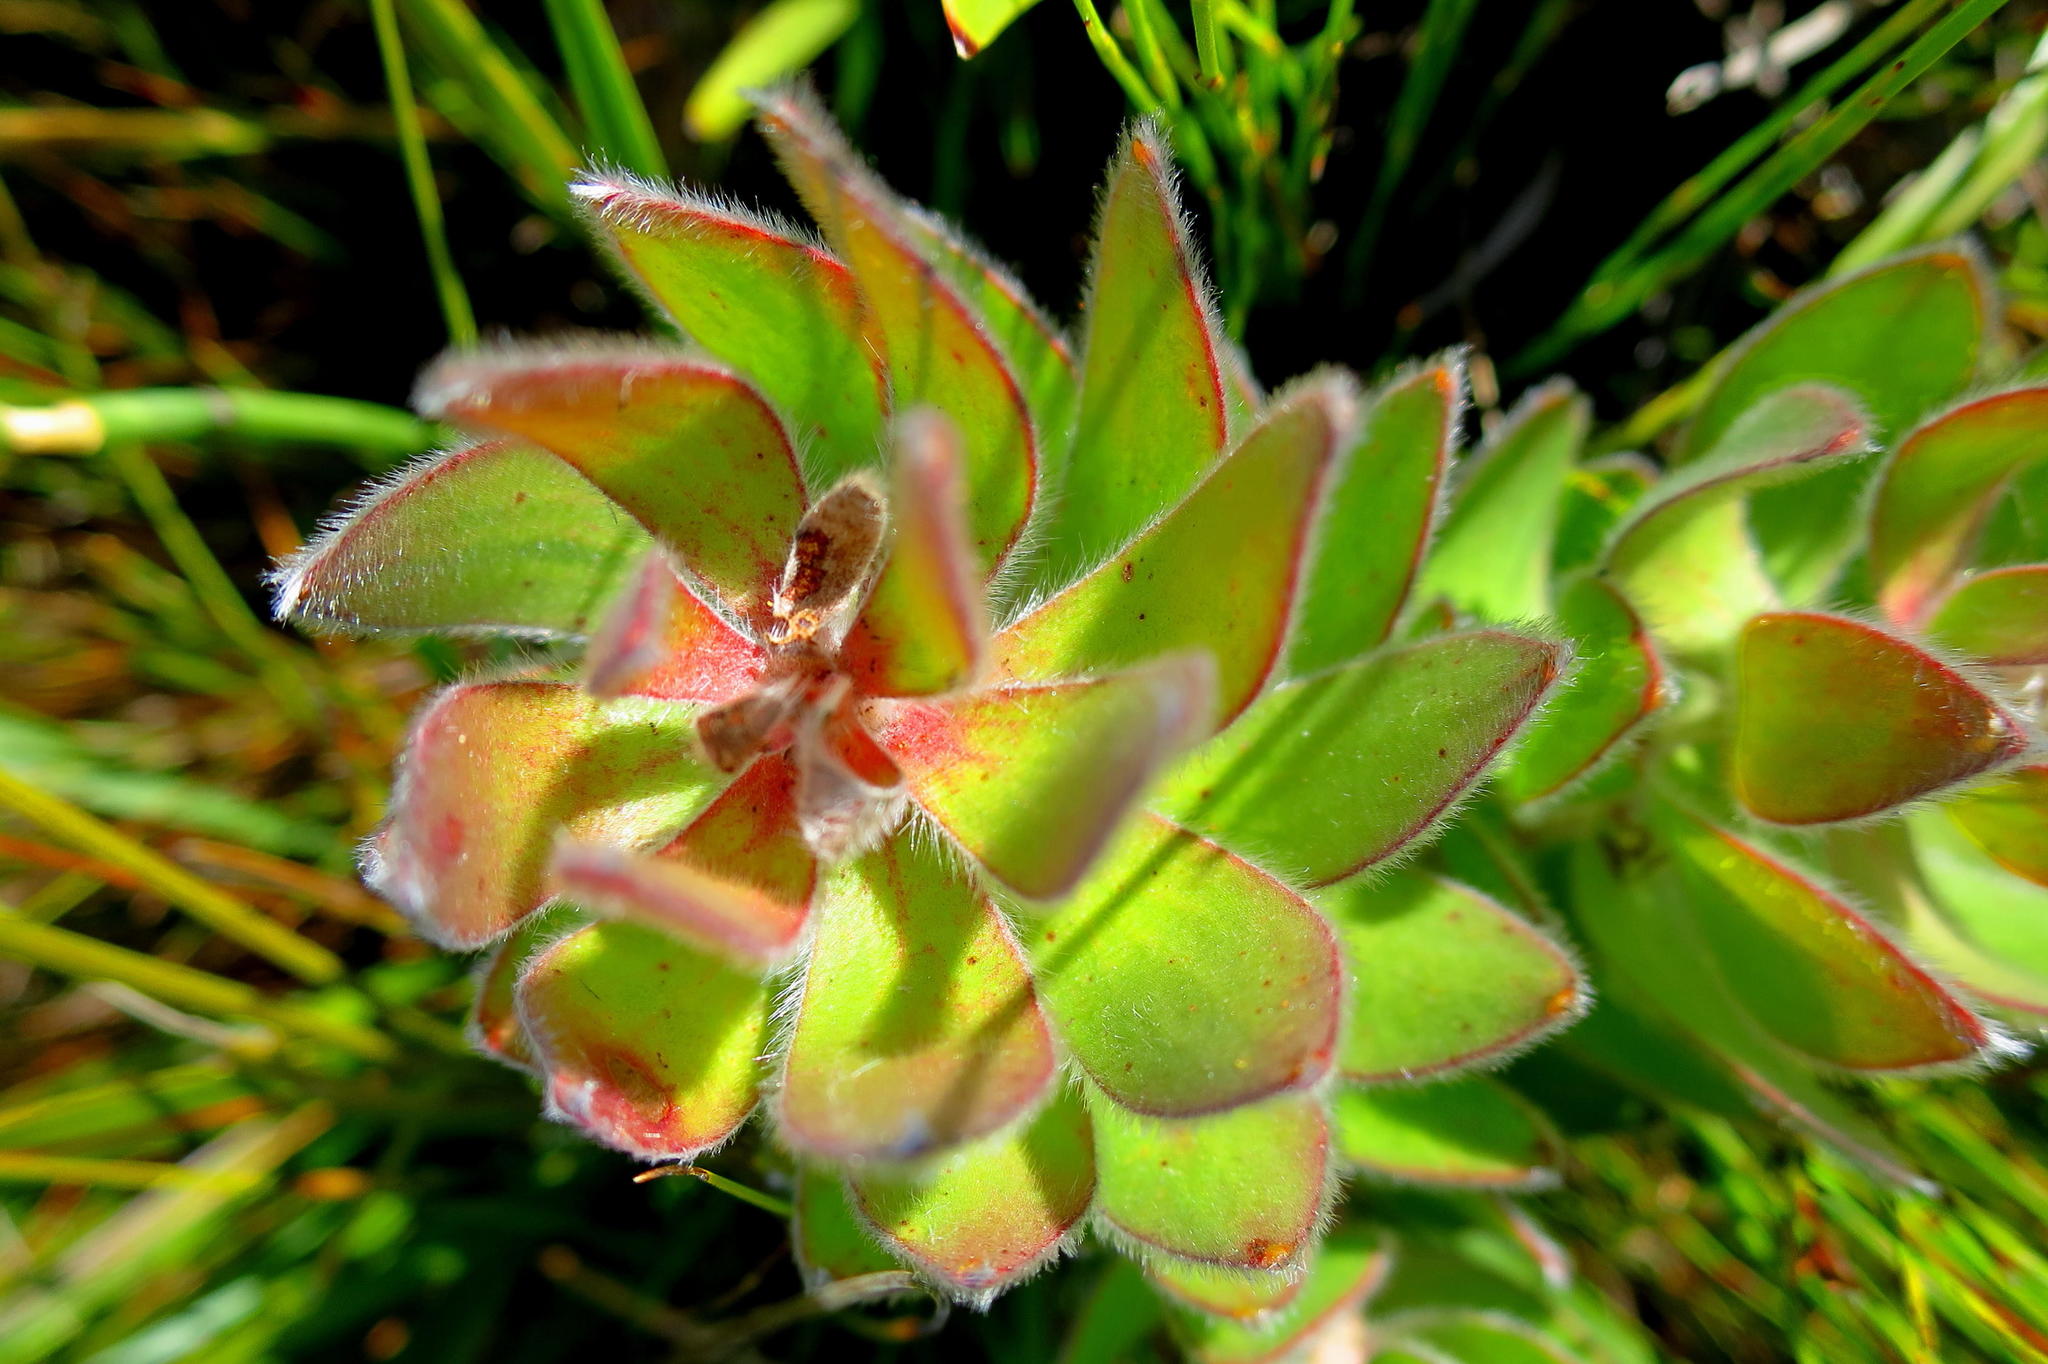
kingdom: Plantae
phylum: Tracheophyta
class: Magnoliopsida
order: Proteales
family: Proteaceae
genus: Mimetes
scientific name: Mimetes pauciflora
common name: Three-flowered pagoda
